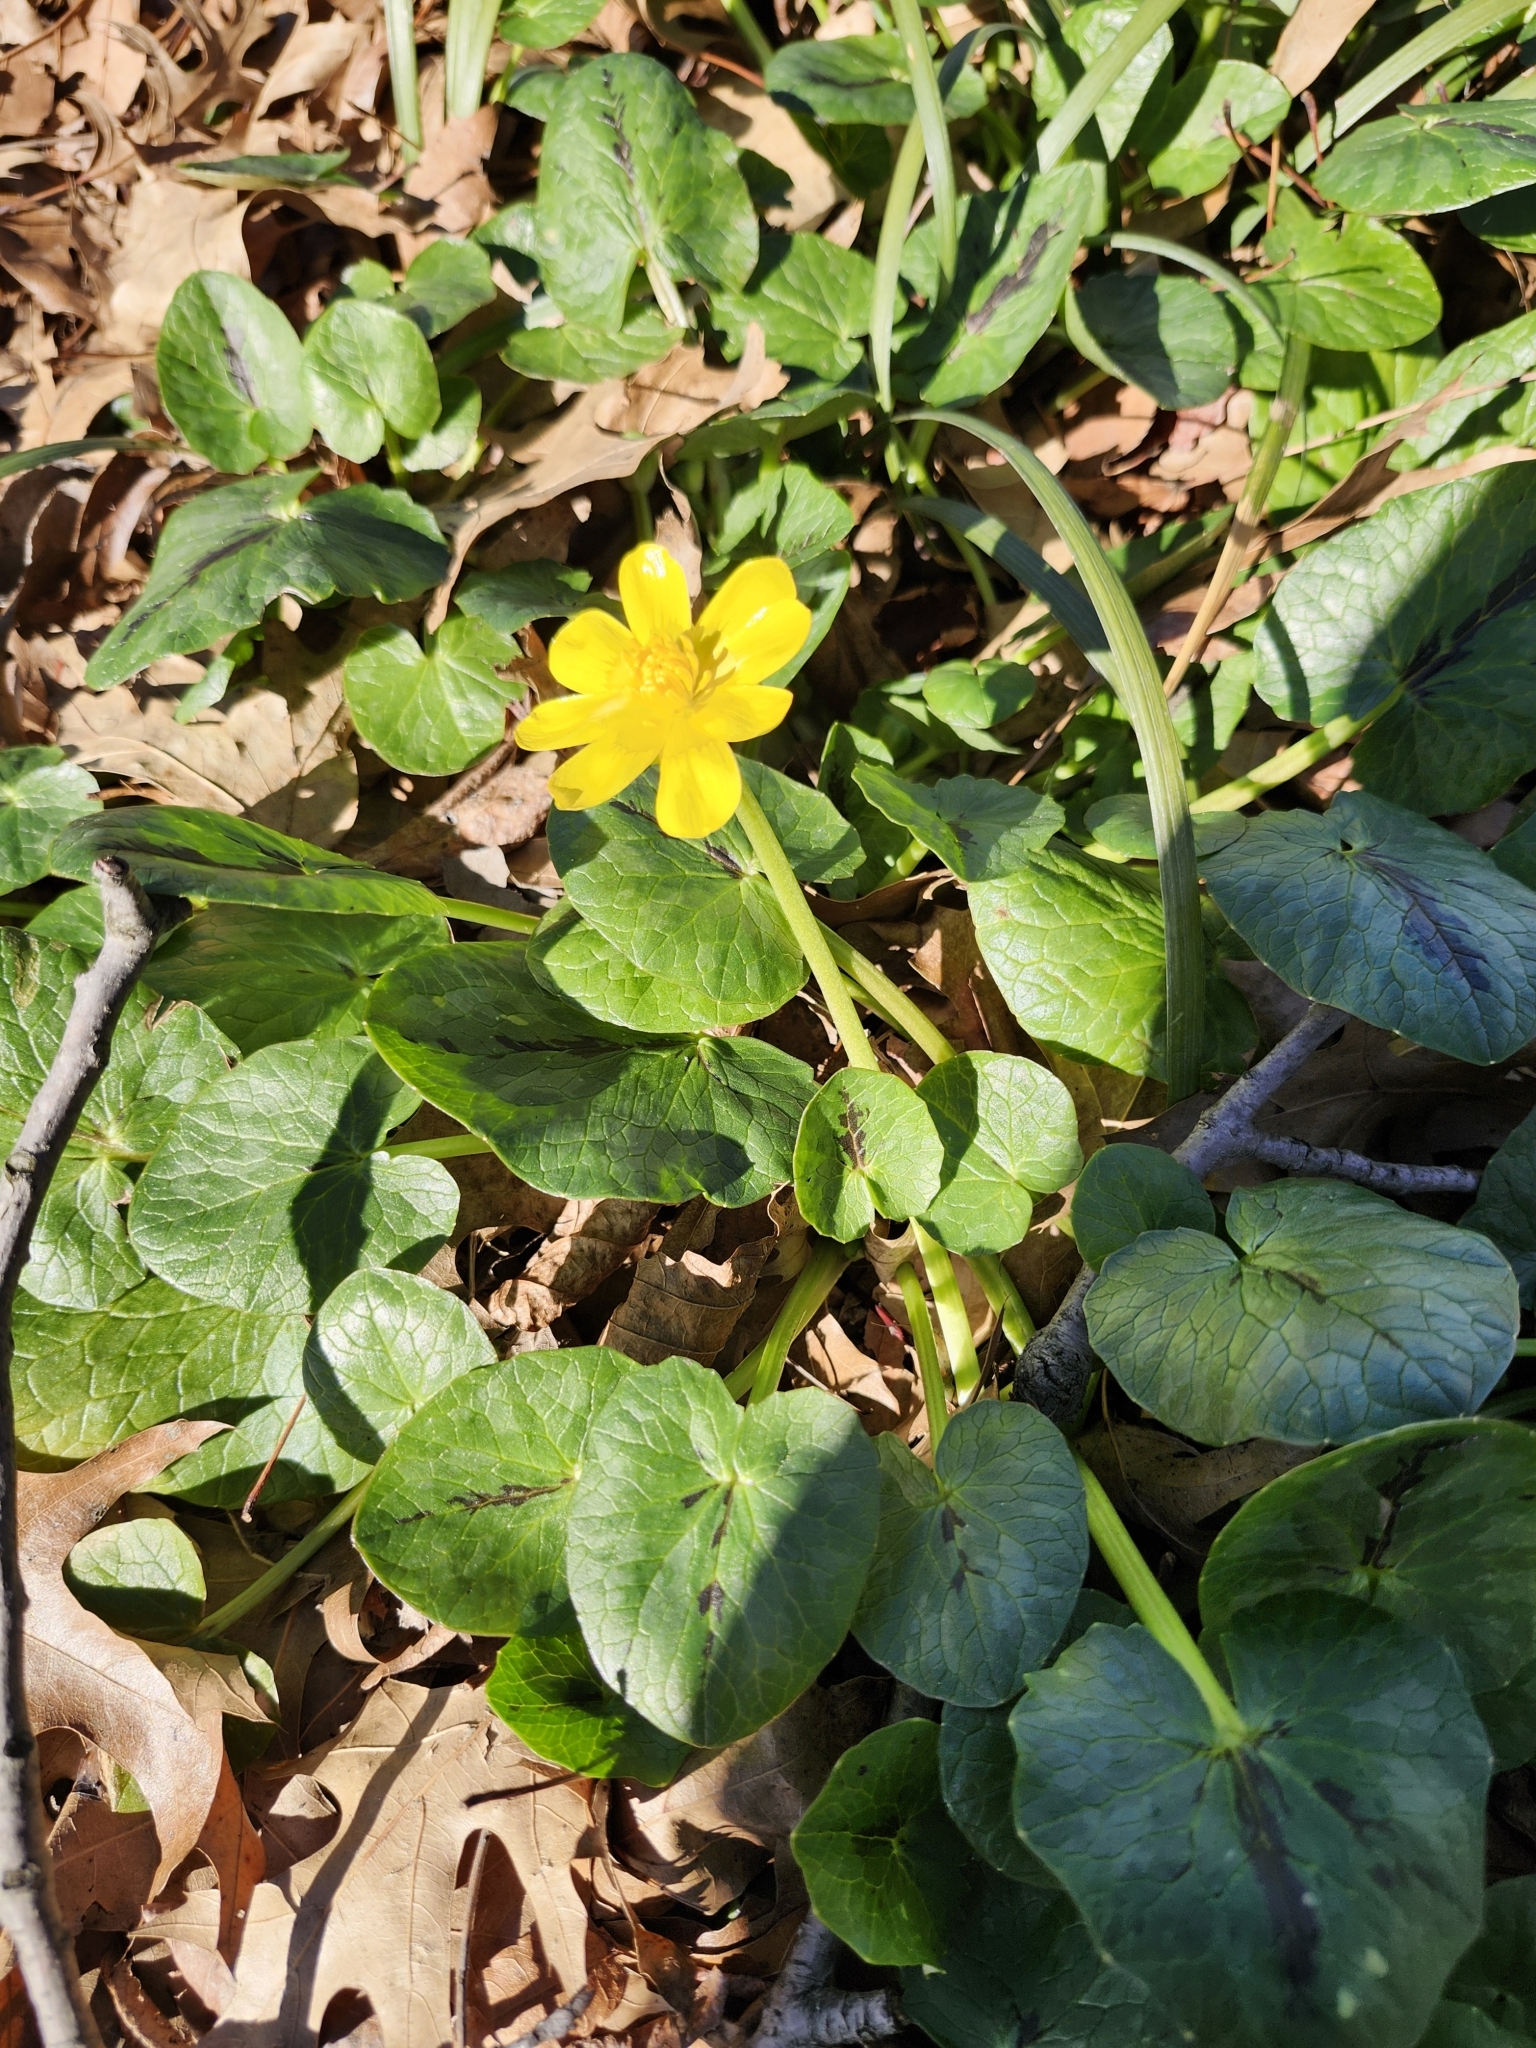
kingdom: Plantae
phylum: Tracheophyta
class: Magnoliopsida
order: Ranunculales
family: Ranunculaceae
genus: Ficaria
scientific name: Ficaria verna
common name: Lesser celandine
